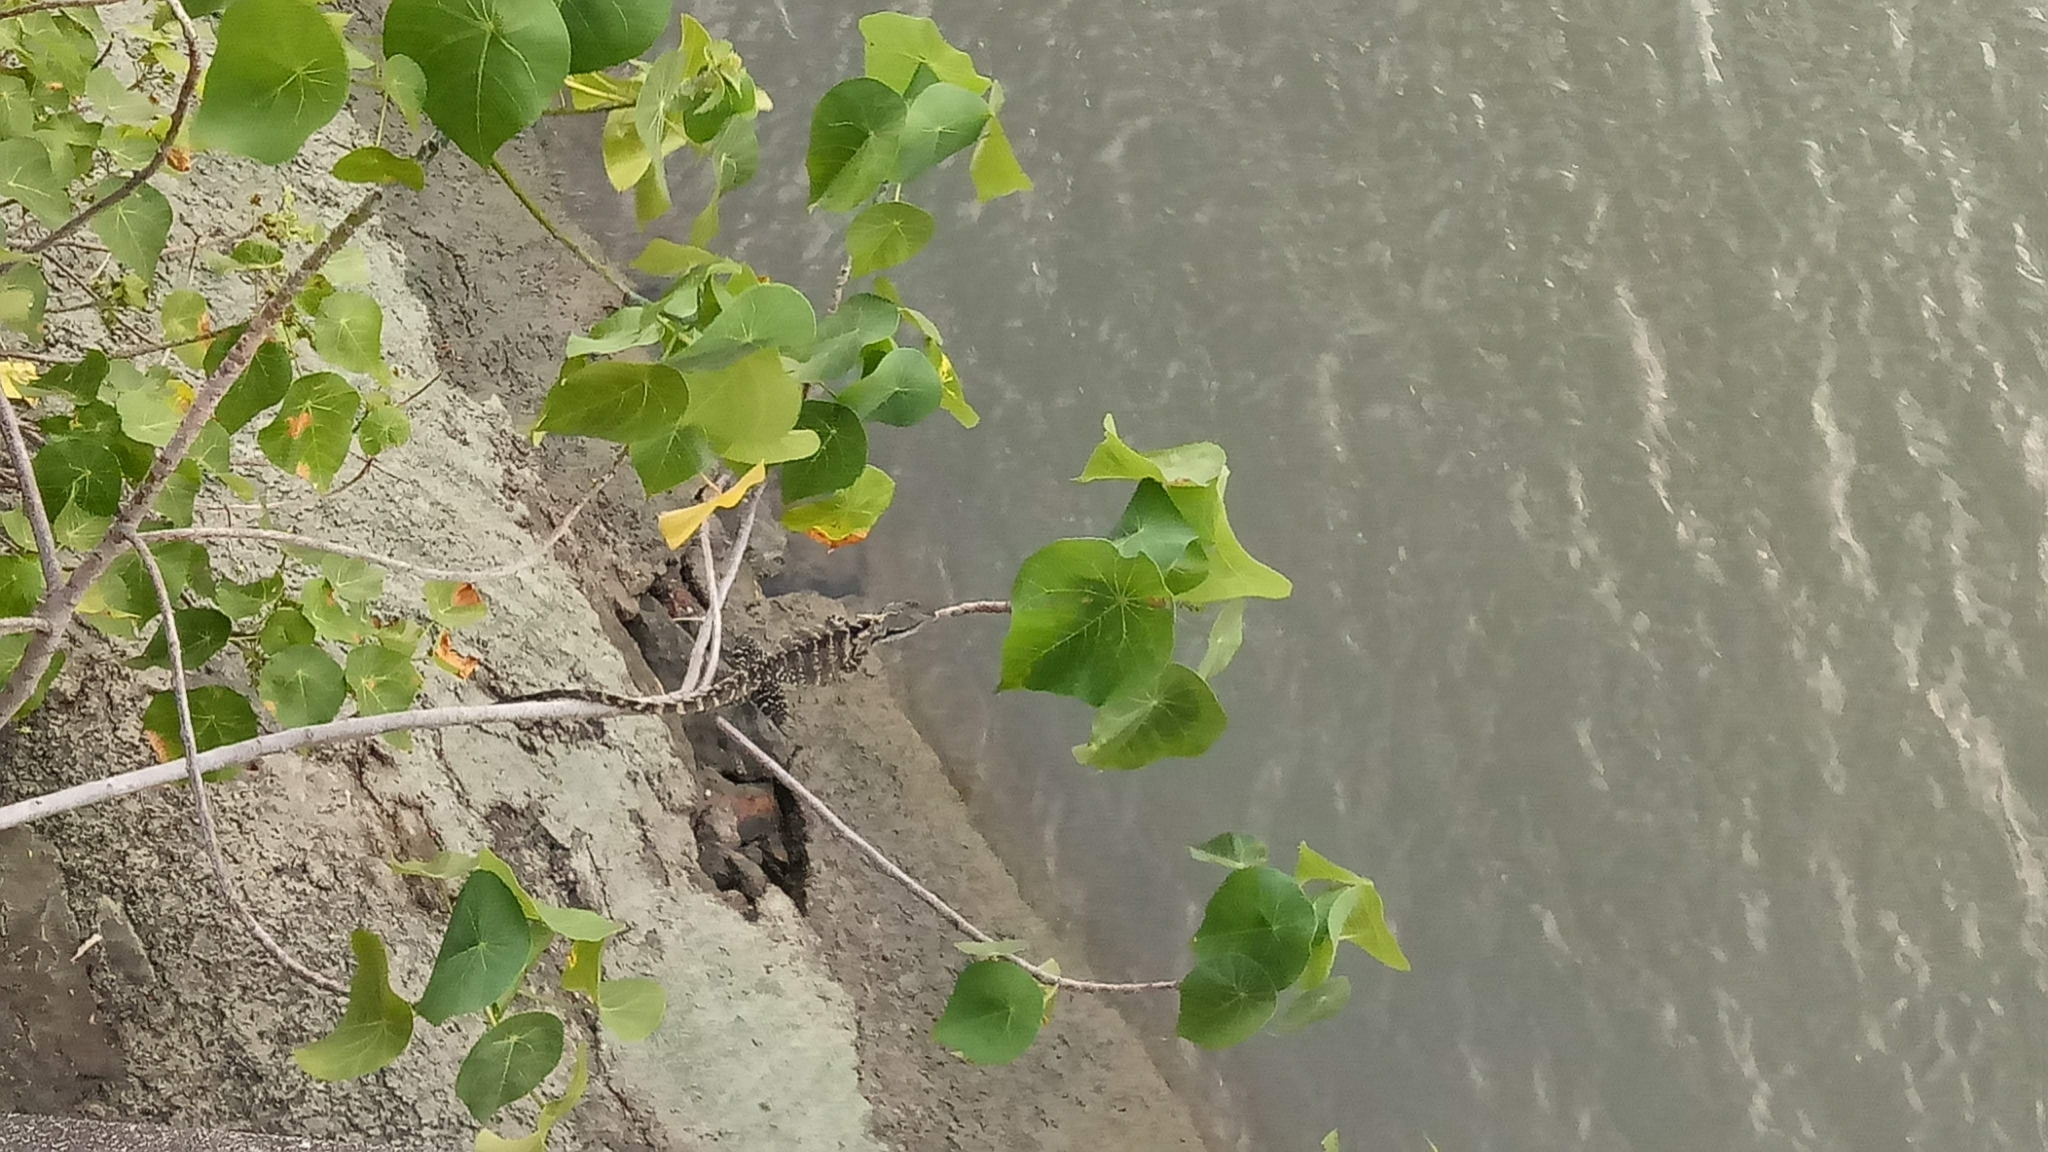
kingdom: Animalia
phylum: Chordata
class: Squamata
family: Agamidae
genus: Intellagama
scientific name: Intellagama lesueurii
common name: Eastern water dragon
